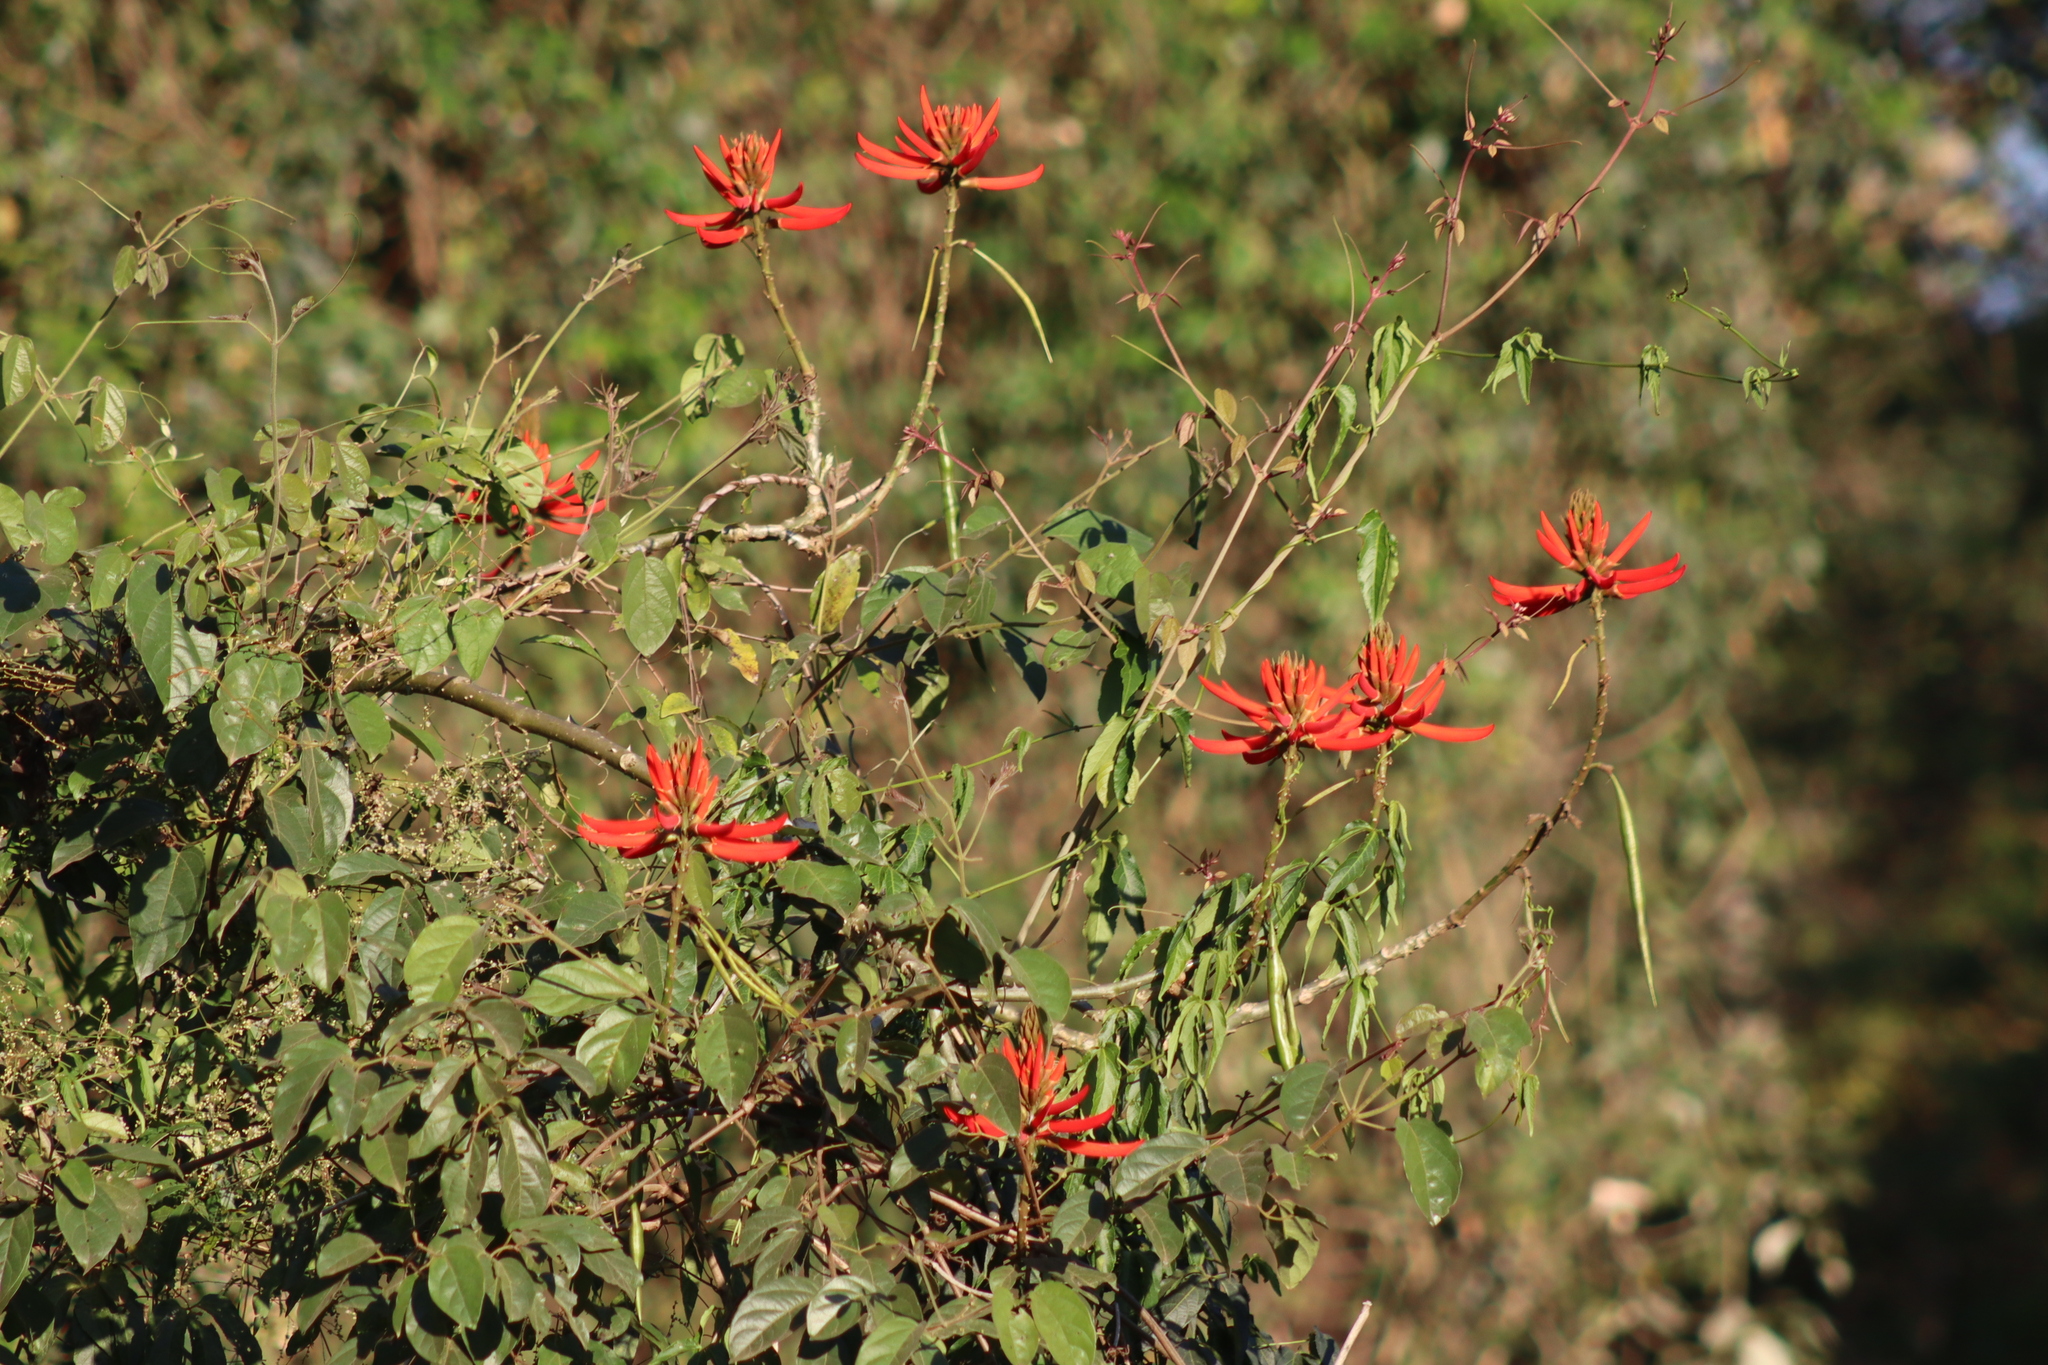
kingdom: Plantae
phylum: Tracheophyta
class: Magnoliopsida
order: Fabales
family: Fabaceae
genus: Erythrina
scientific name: Erythrina speciosa
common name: Coral tree
